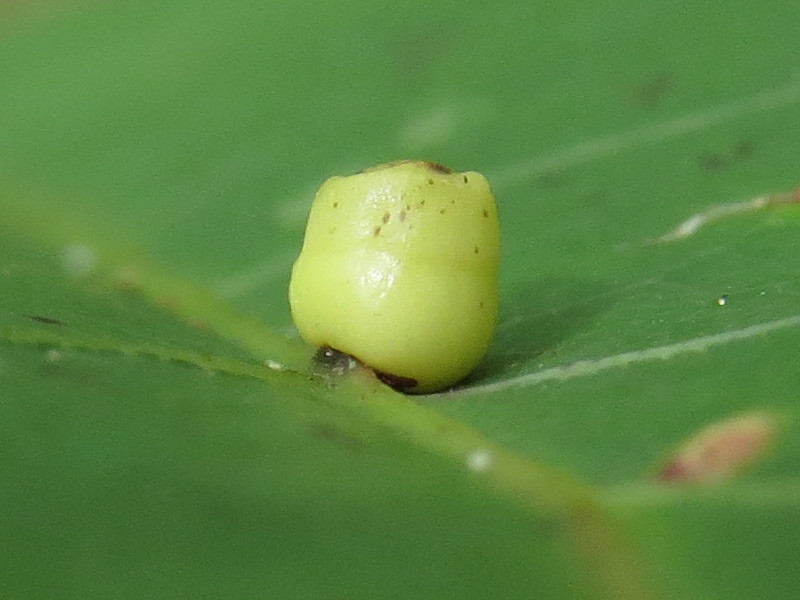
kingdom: Animalia
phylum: Arthropoda
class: Insecta
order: Hymenoptera
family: Cynipidae
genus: Kokkocynips
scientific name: Kokkocynips rileyi
